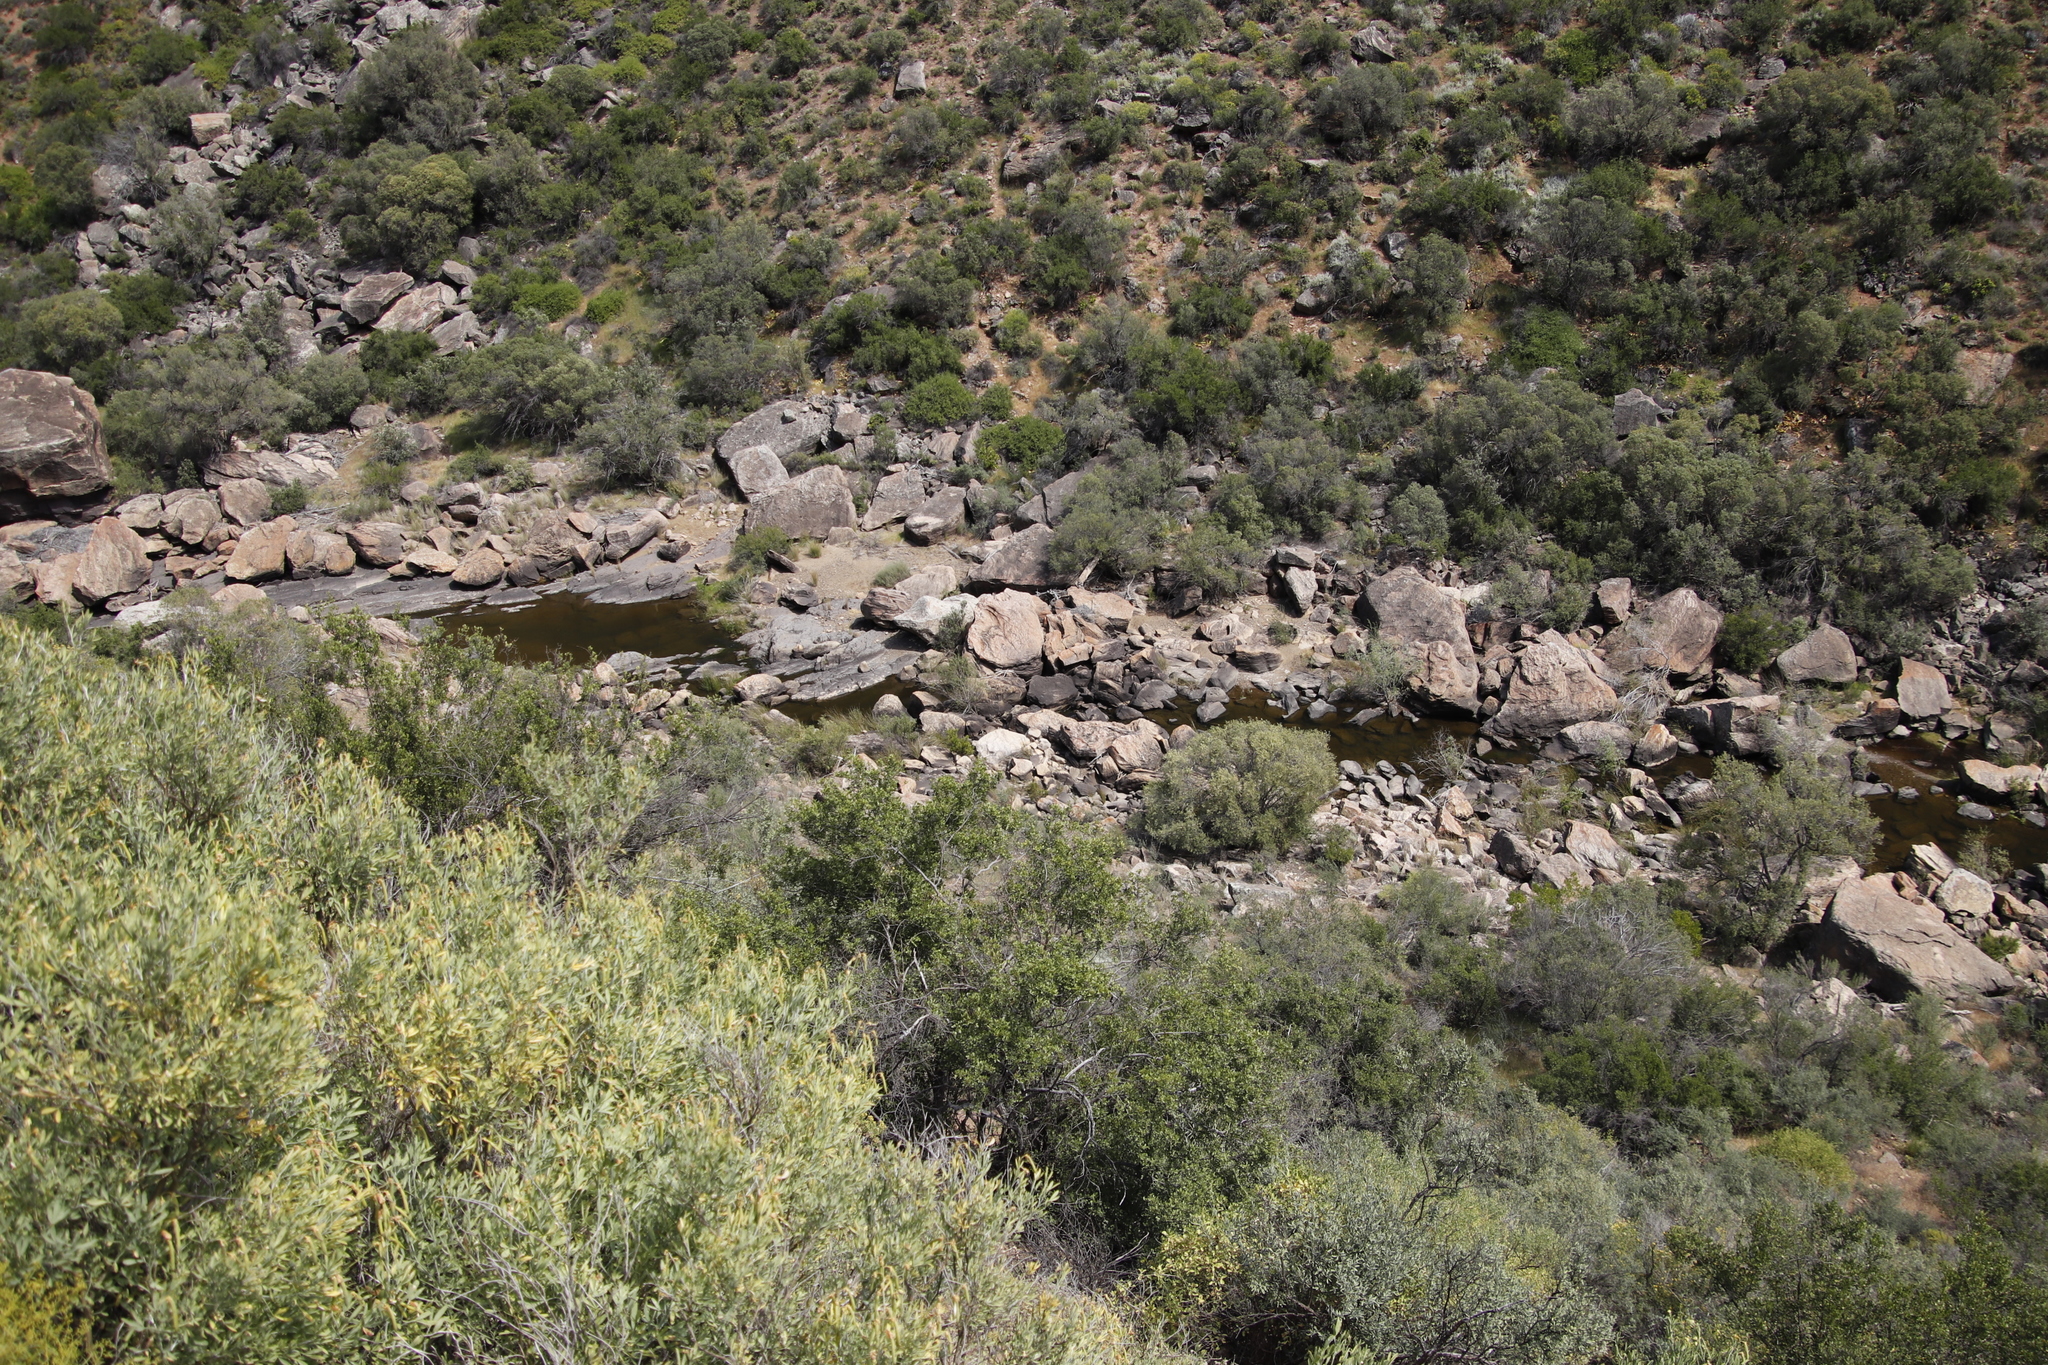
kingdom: Plantae
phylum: Tracheophyta
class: Magnoliopsida
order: Lamiales
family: Oleaceae
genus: Olea
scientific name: Olea europaea
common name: Olive
